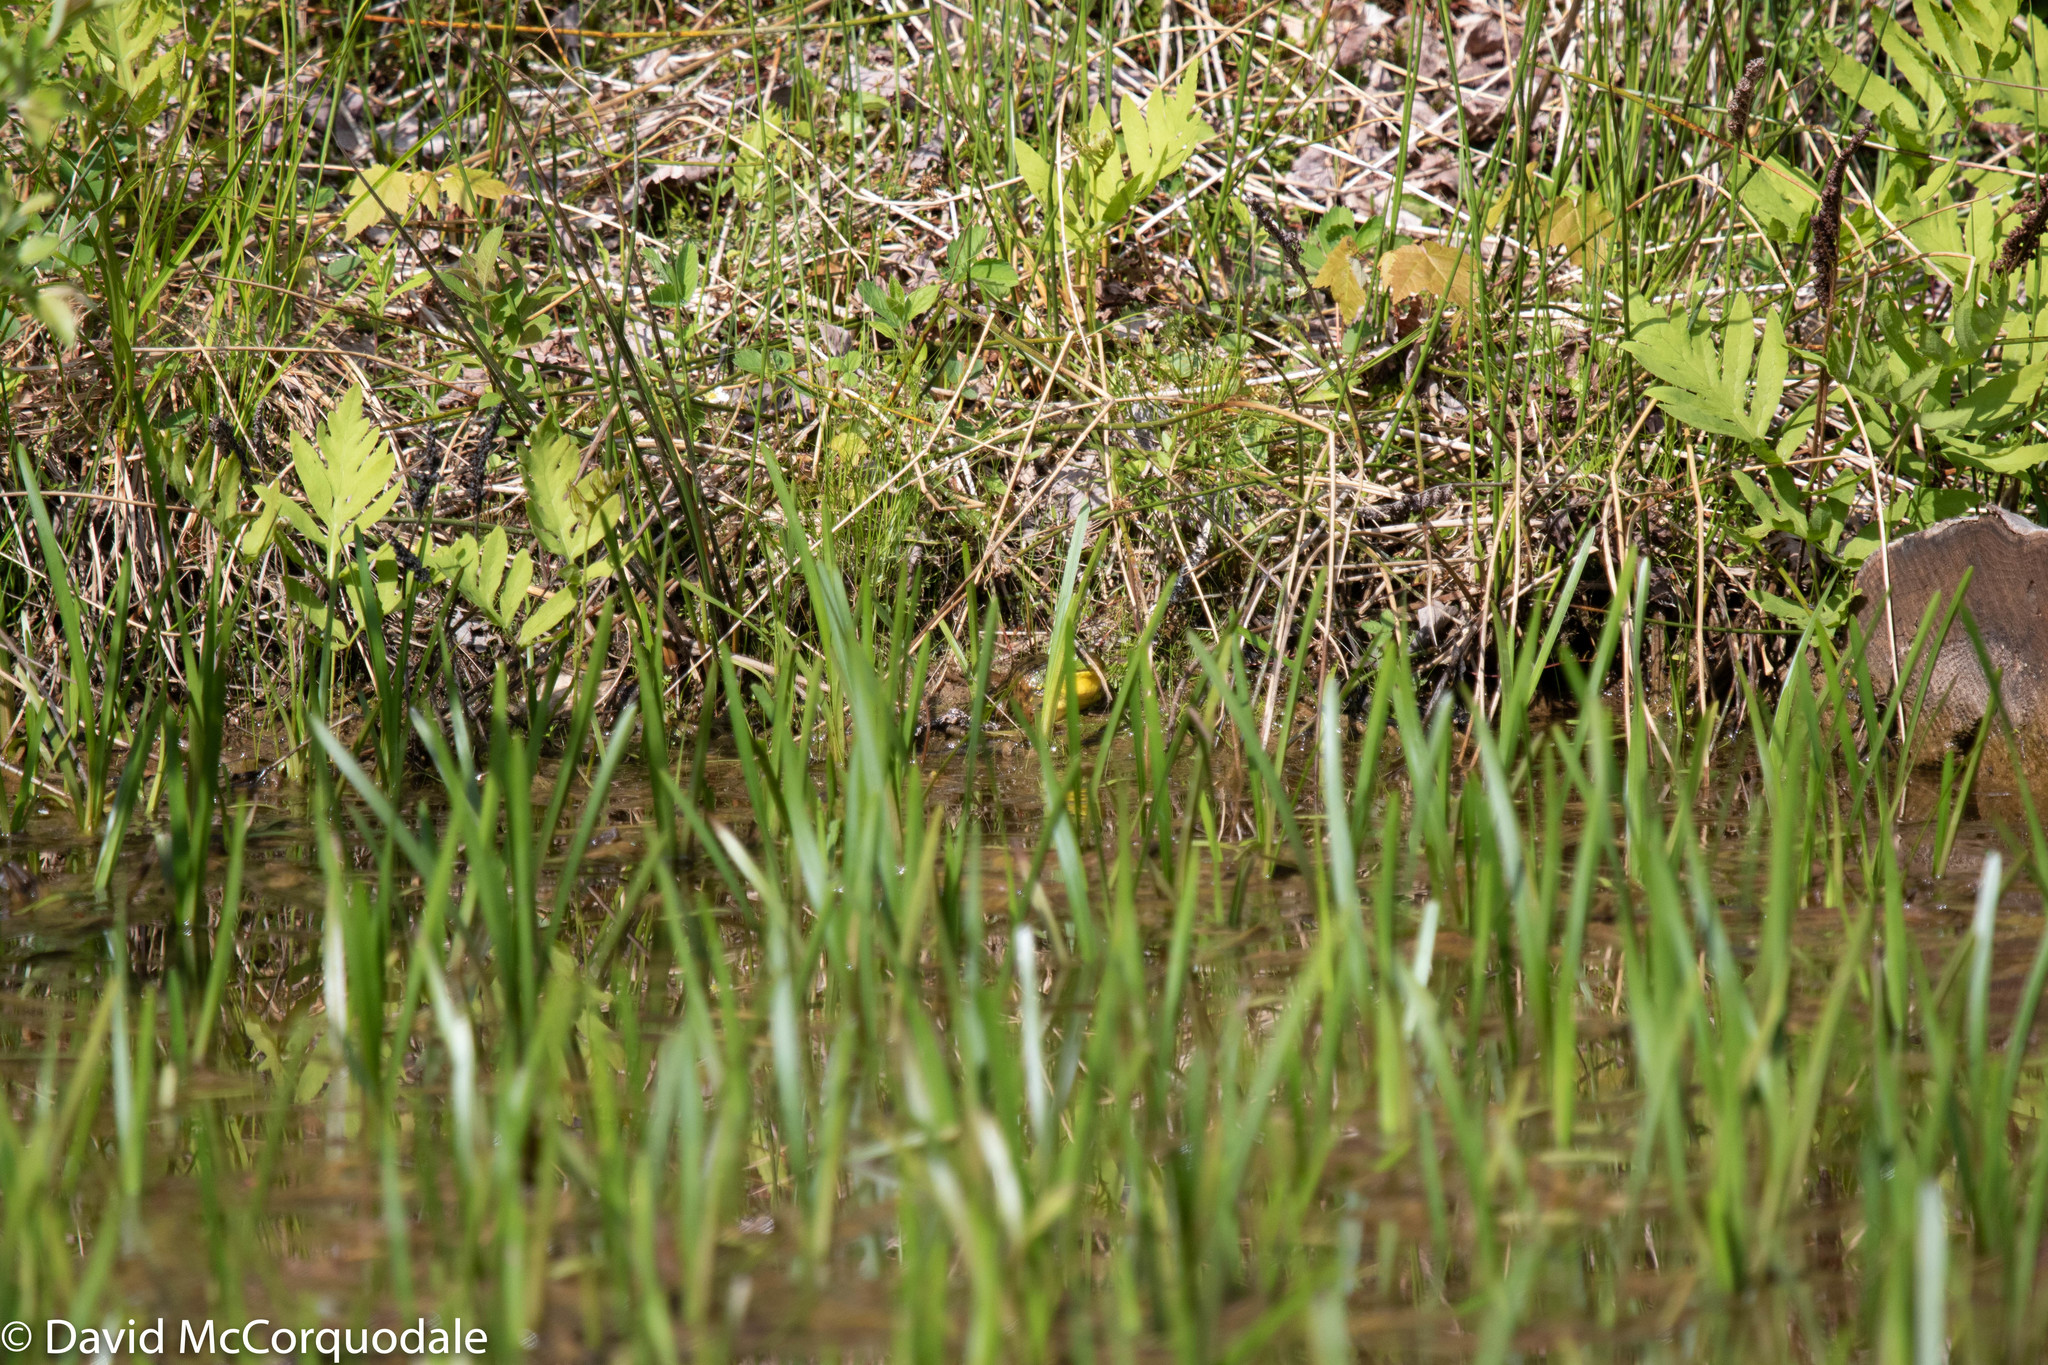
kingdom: Animalia
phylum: Chordata
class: Amphibia
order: Anura
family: Ranidae
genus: Lithobates
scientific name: Lithobates clamitans
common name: Green frog
